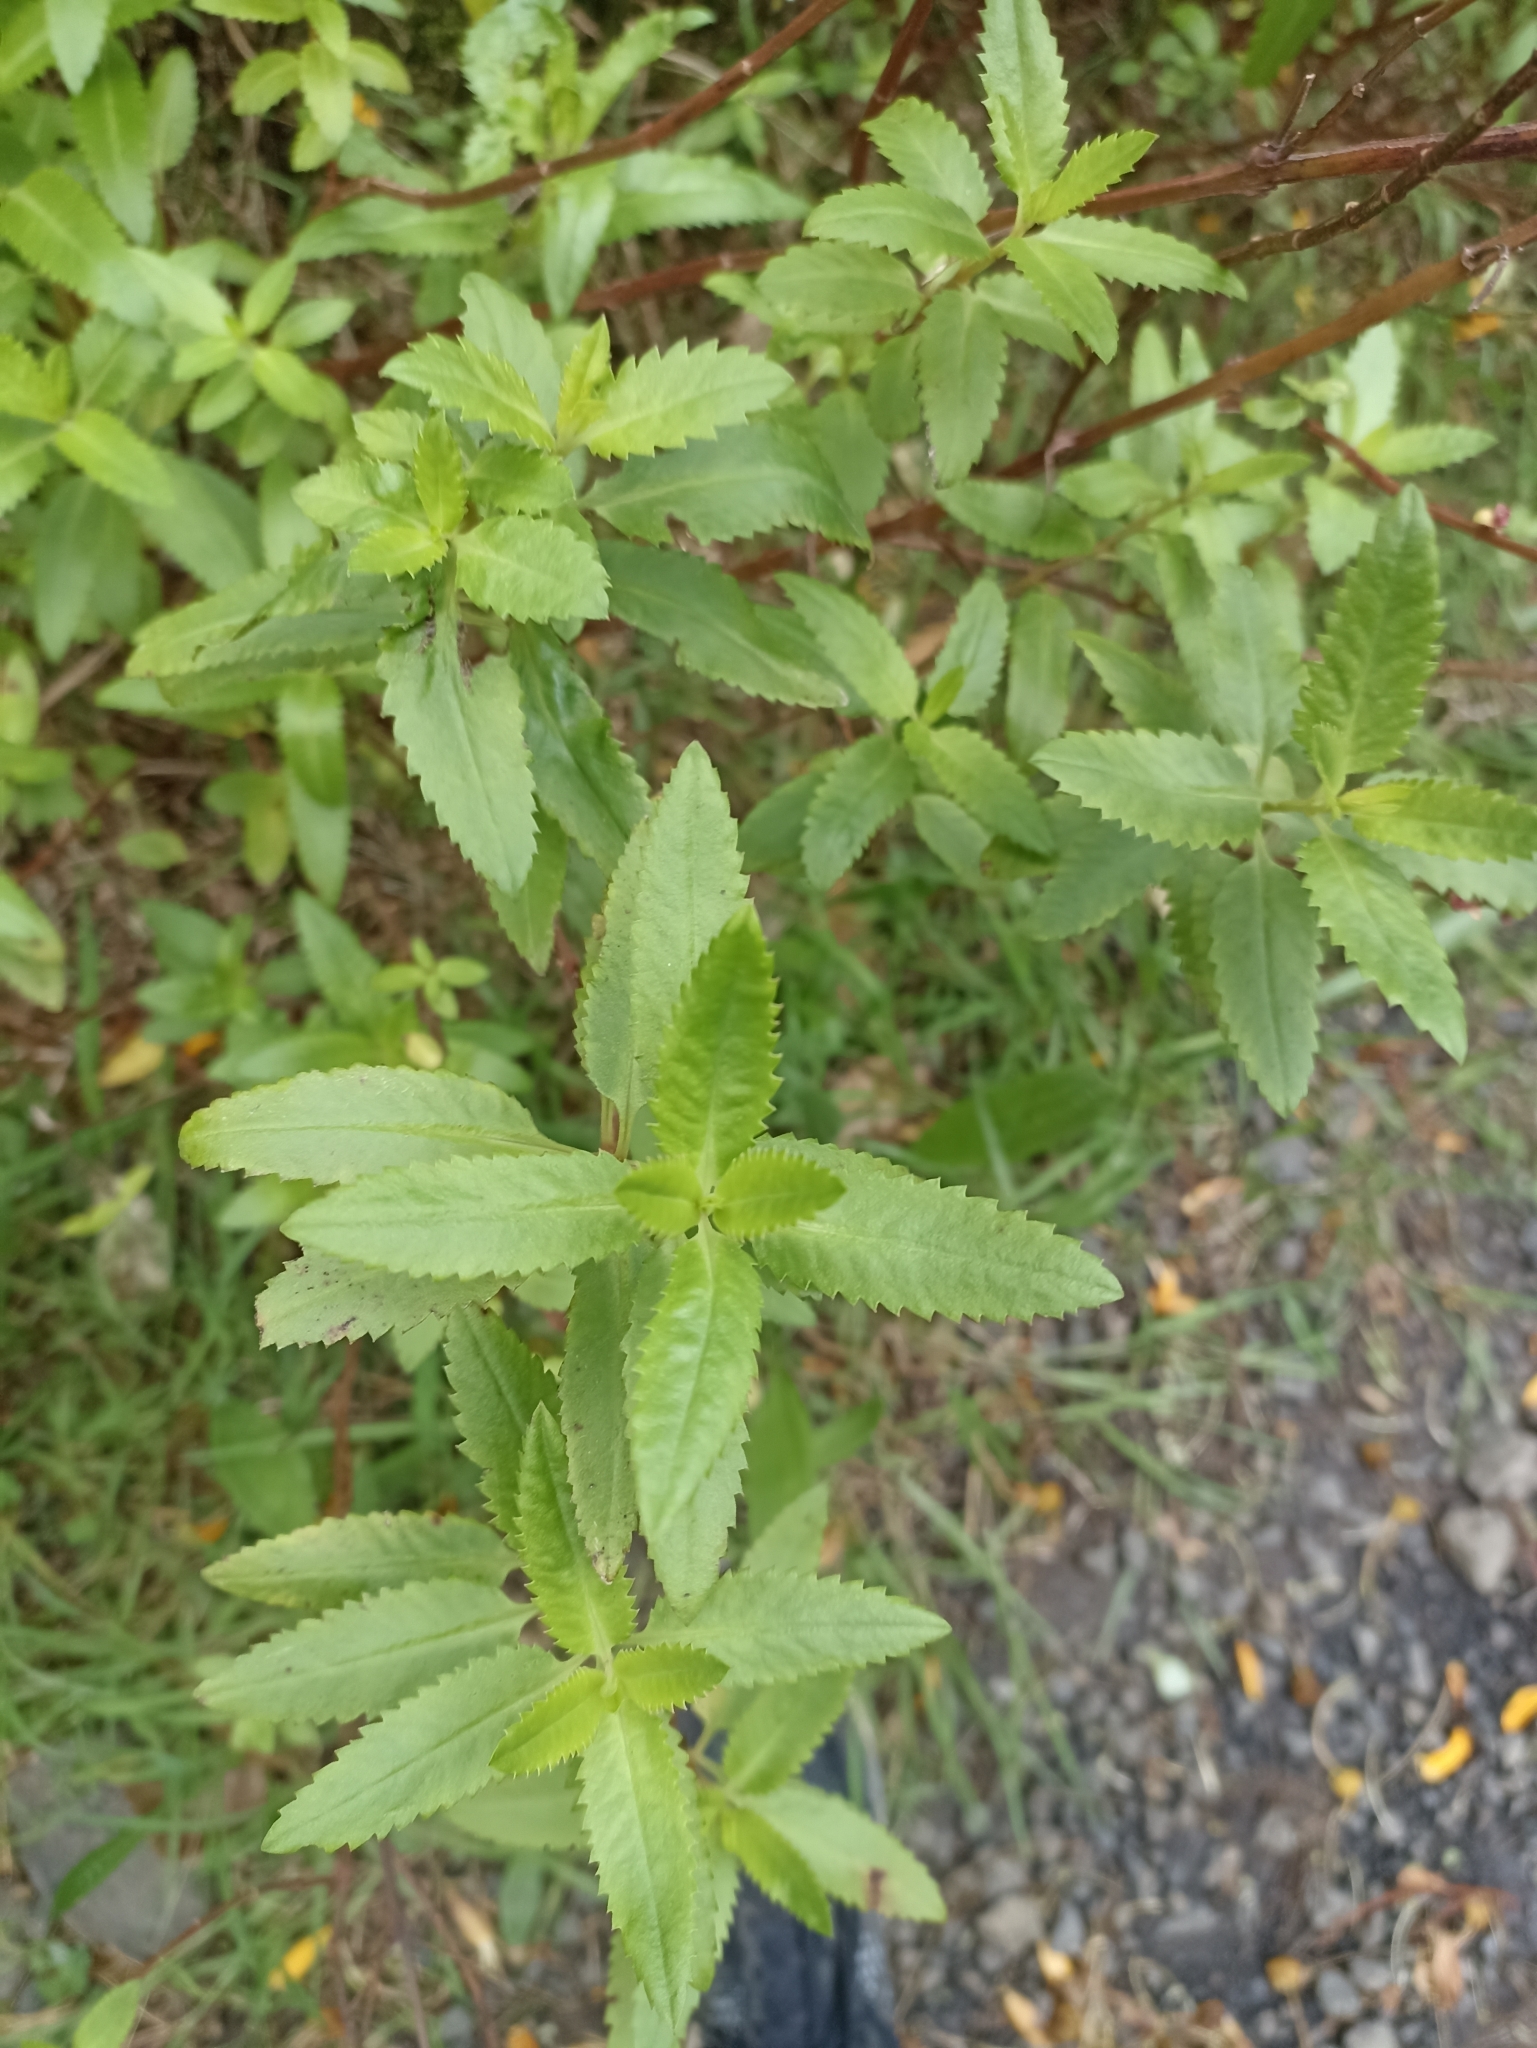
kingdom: Plantae
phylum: Tracheophyta
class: Magnoliopsida
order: Saxifragales
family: Haloragaceae
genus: Haloragis
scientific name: Haloragis erecta
